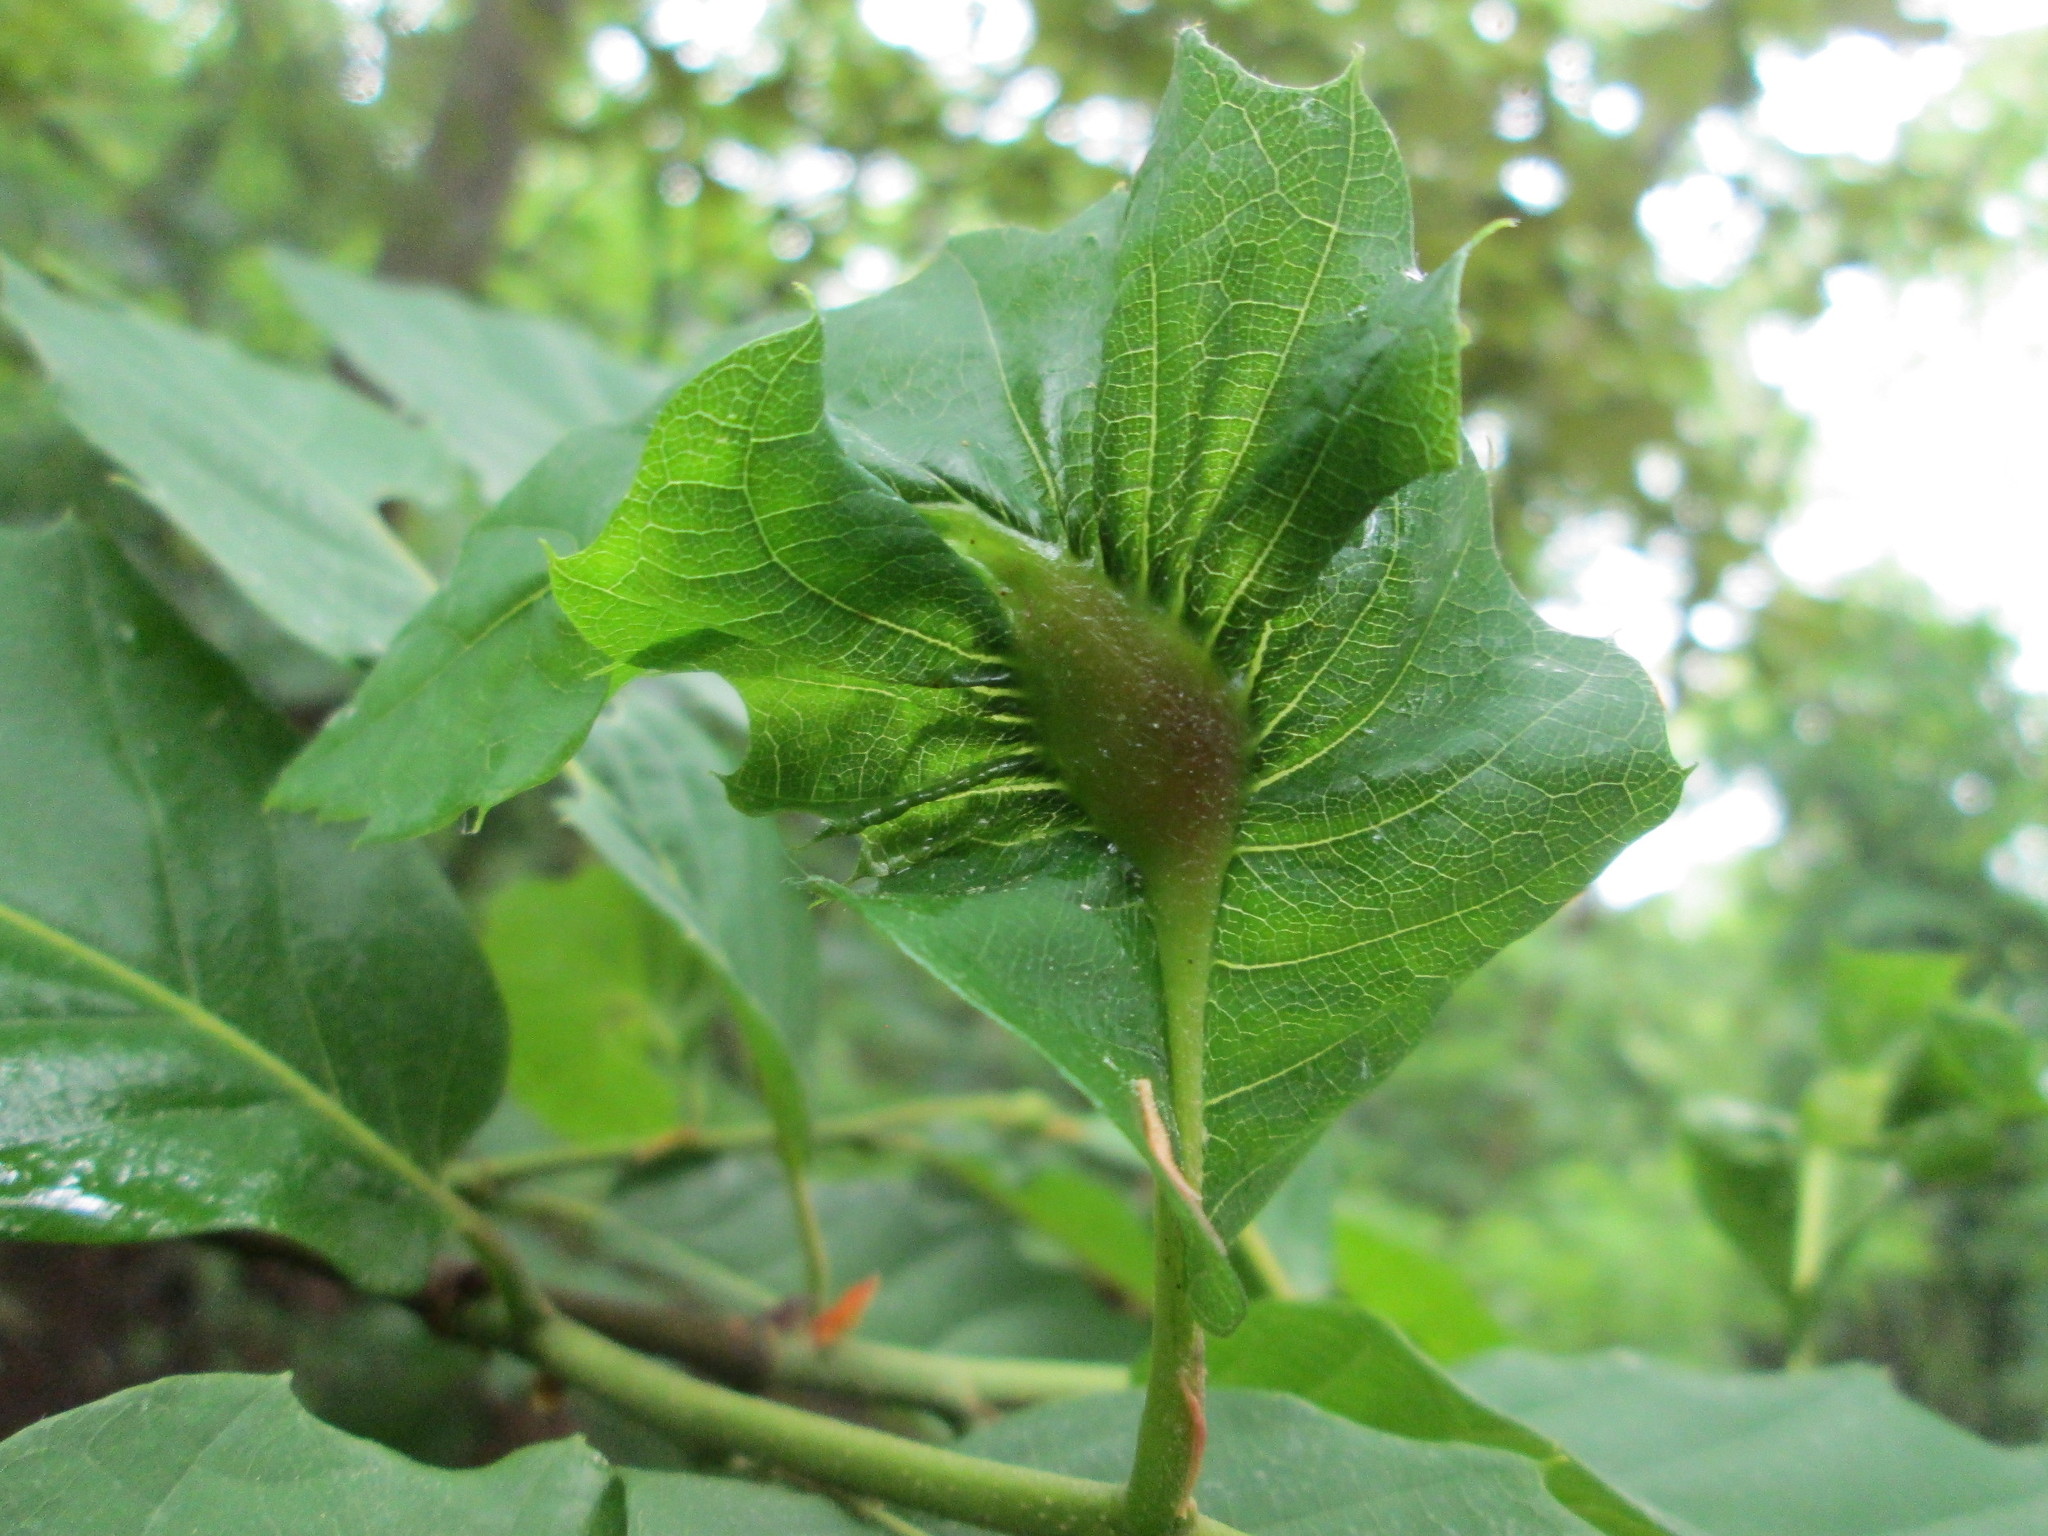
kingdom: Plantae
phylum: Tracheophyta
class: Magnoliopsida
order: Fagales
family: Fagaceae
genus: Castanea
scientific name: Castanea sativa
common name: Sweet chestnut
